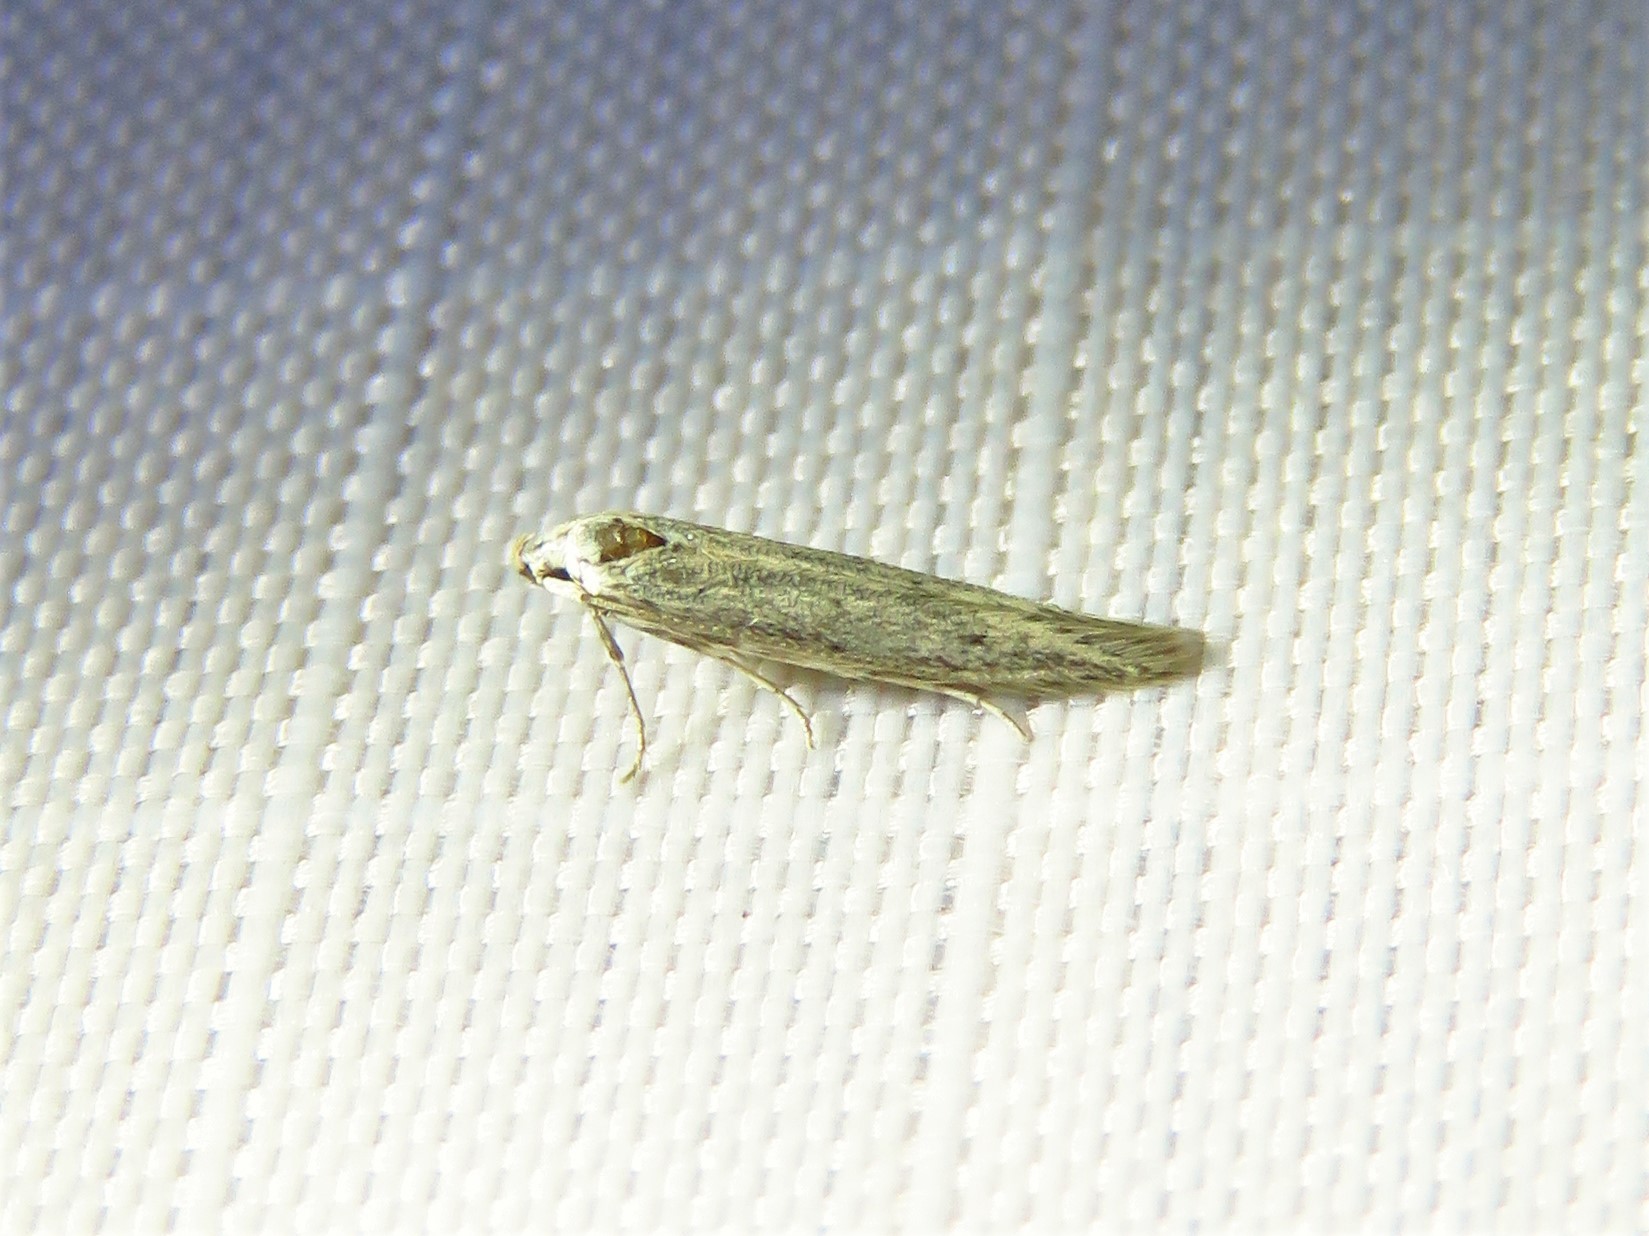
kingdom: Animalia
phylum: Arthropoda
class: Insecta
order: Lepidoptera
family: Elachistidae
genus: Haplochrois
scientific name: Haplochrois bipunctella
